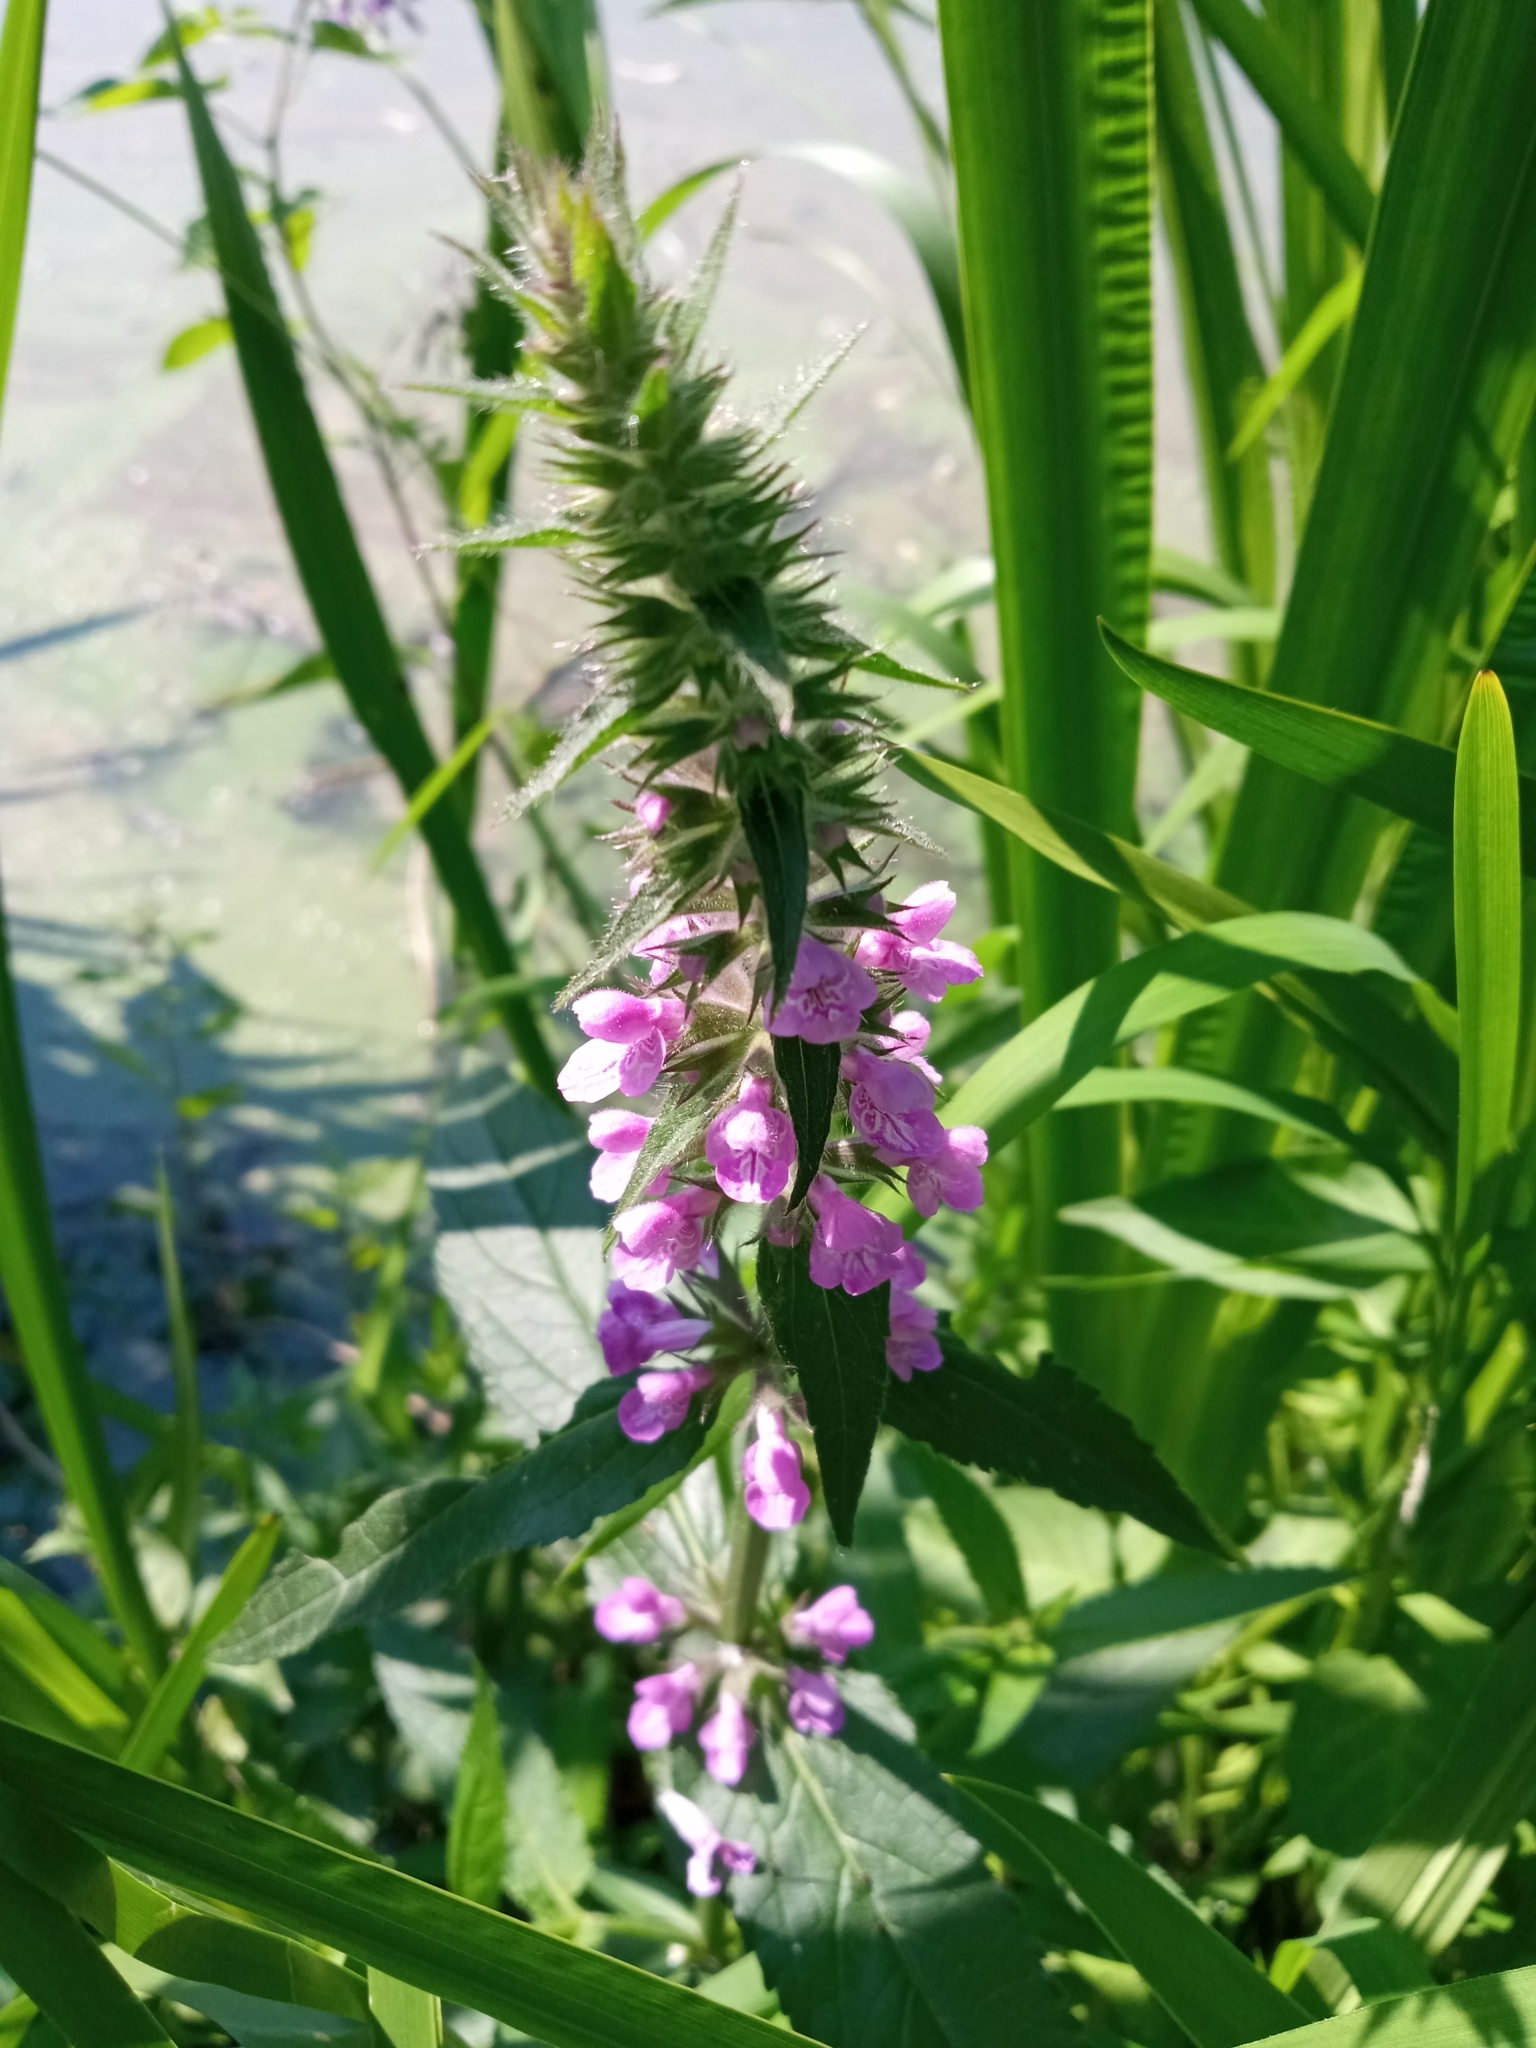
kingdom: Plantae
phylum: Tracheophyta
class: Magnoliopsida
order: Lamiales
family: Lamiaceae
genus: Stachys
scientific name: Stachys palustris
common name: Marsh woundwort
